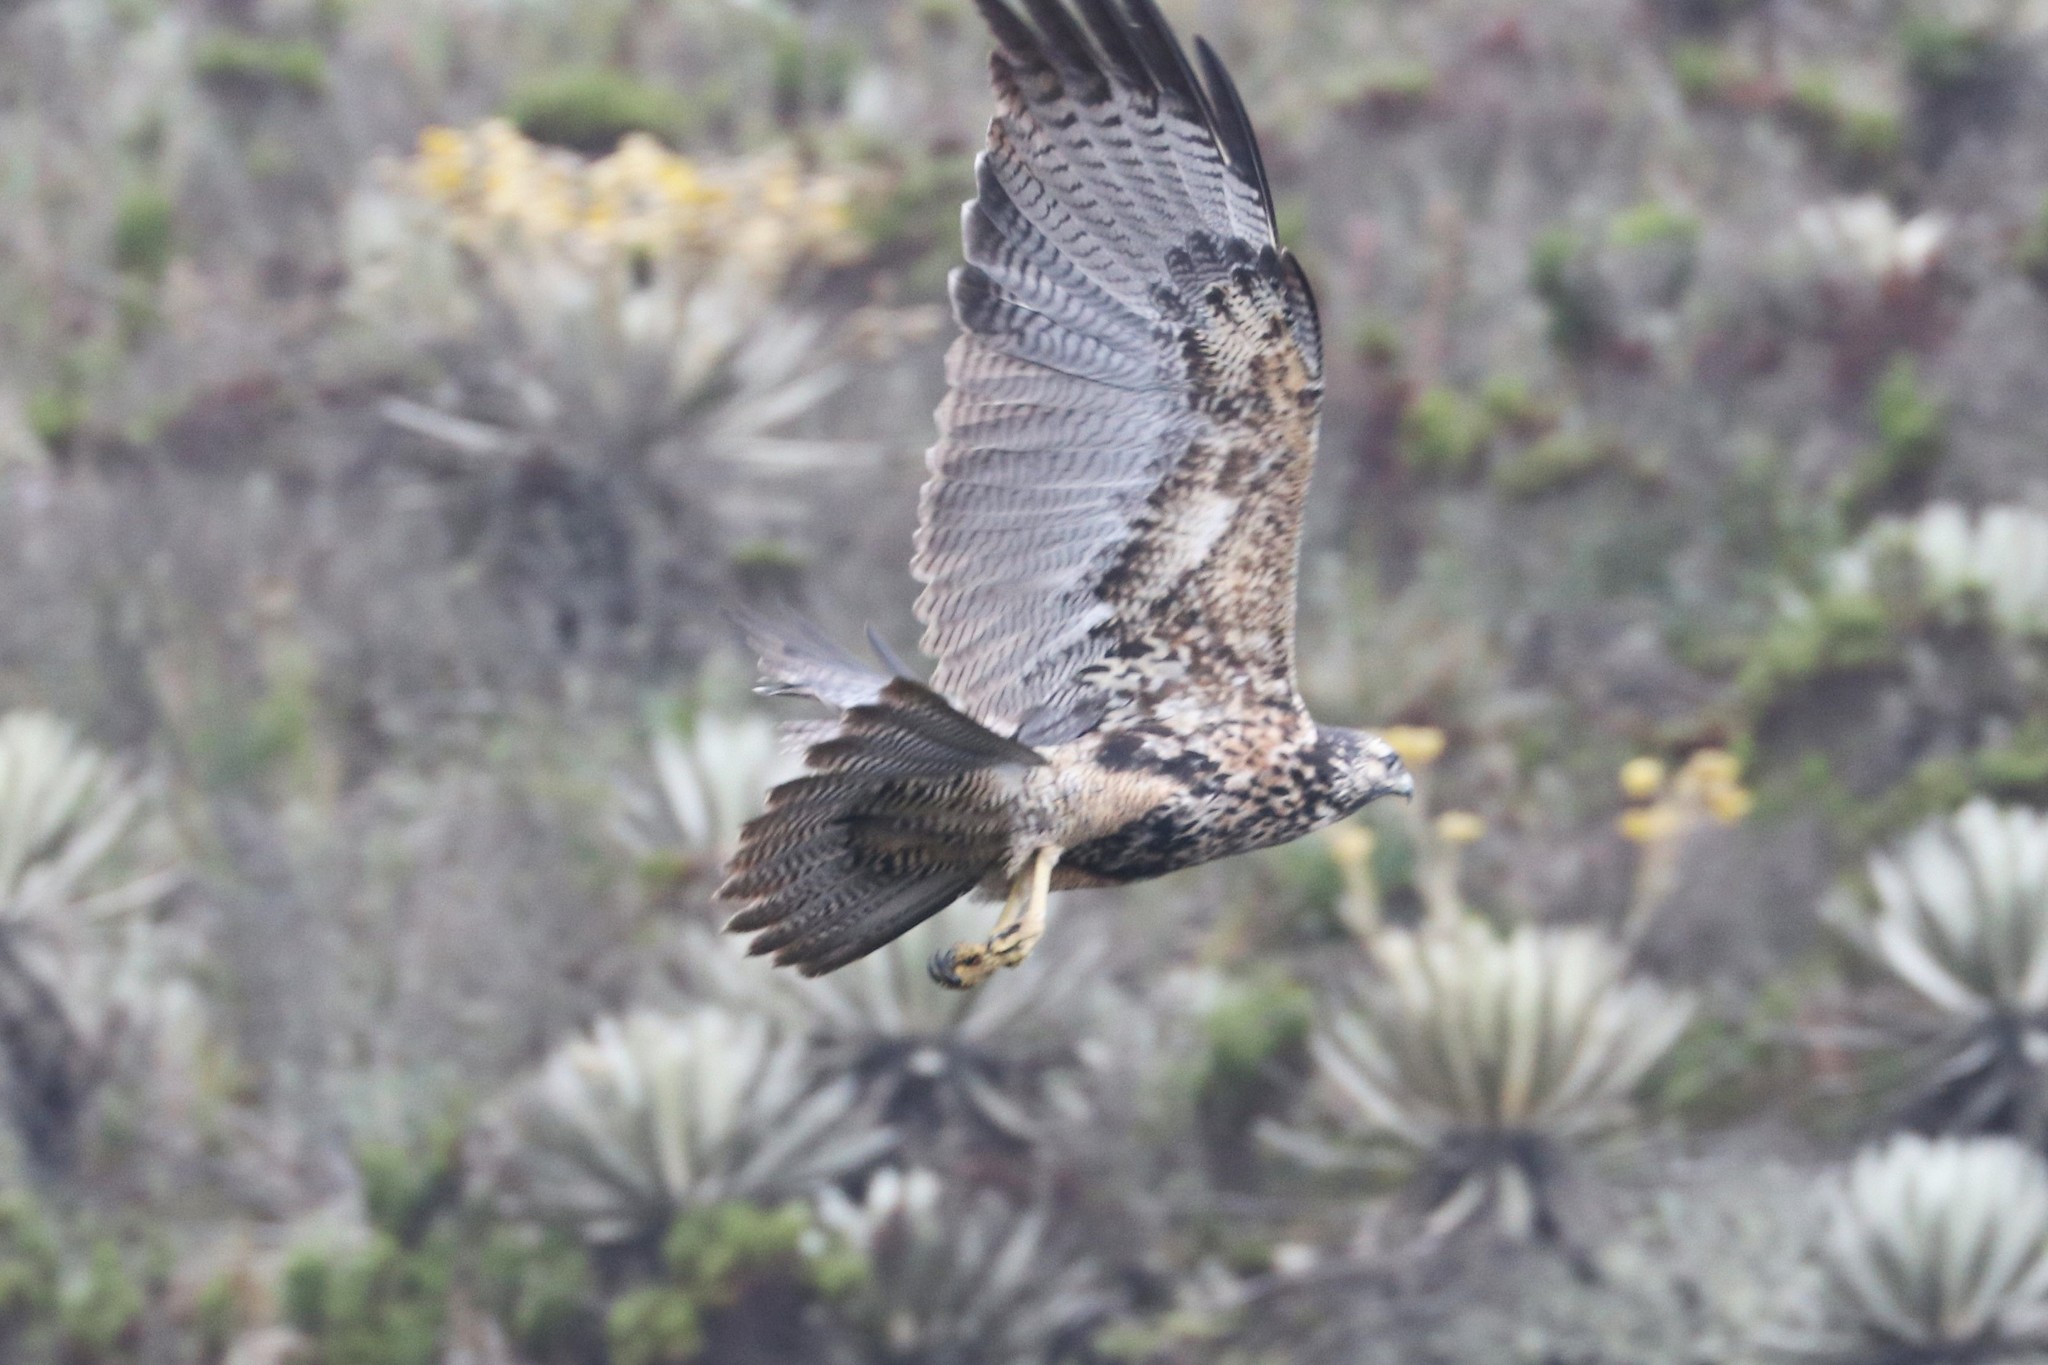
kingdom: Animalia
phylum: Chordata
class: Aves
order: Accipitriformes
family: Accipitridae
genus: Geranoaetus
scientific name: Geranoaetus melanoleucus
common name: Black-chested buzzard-eagle
